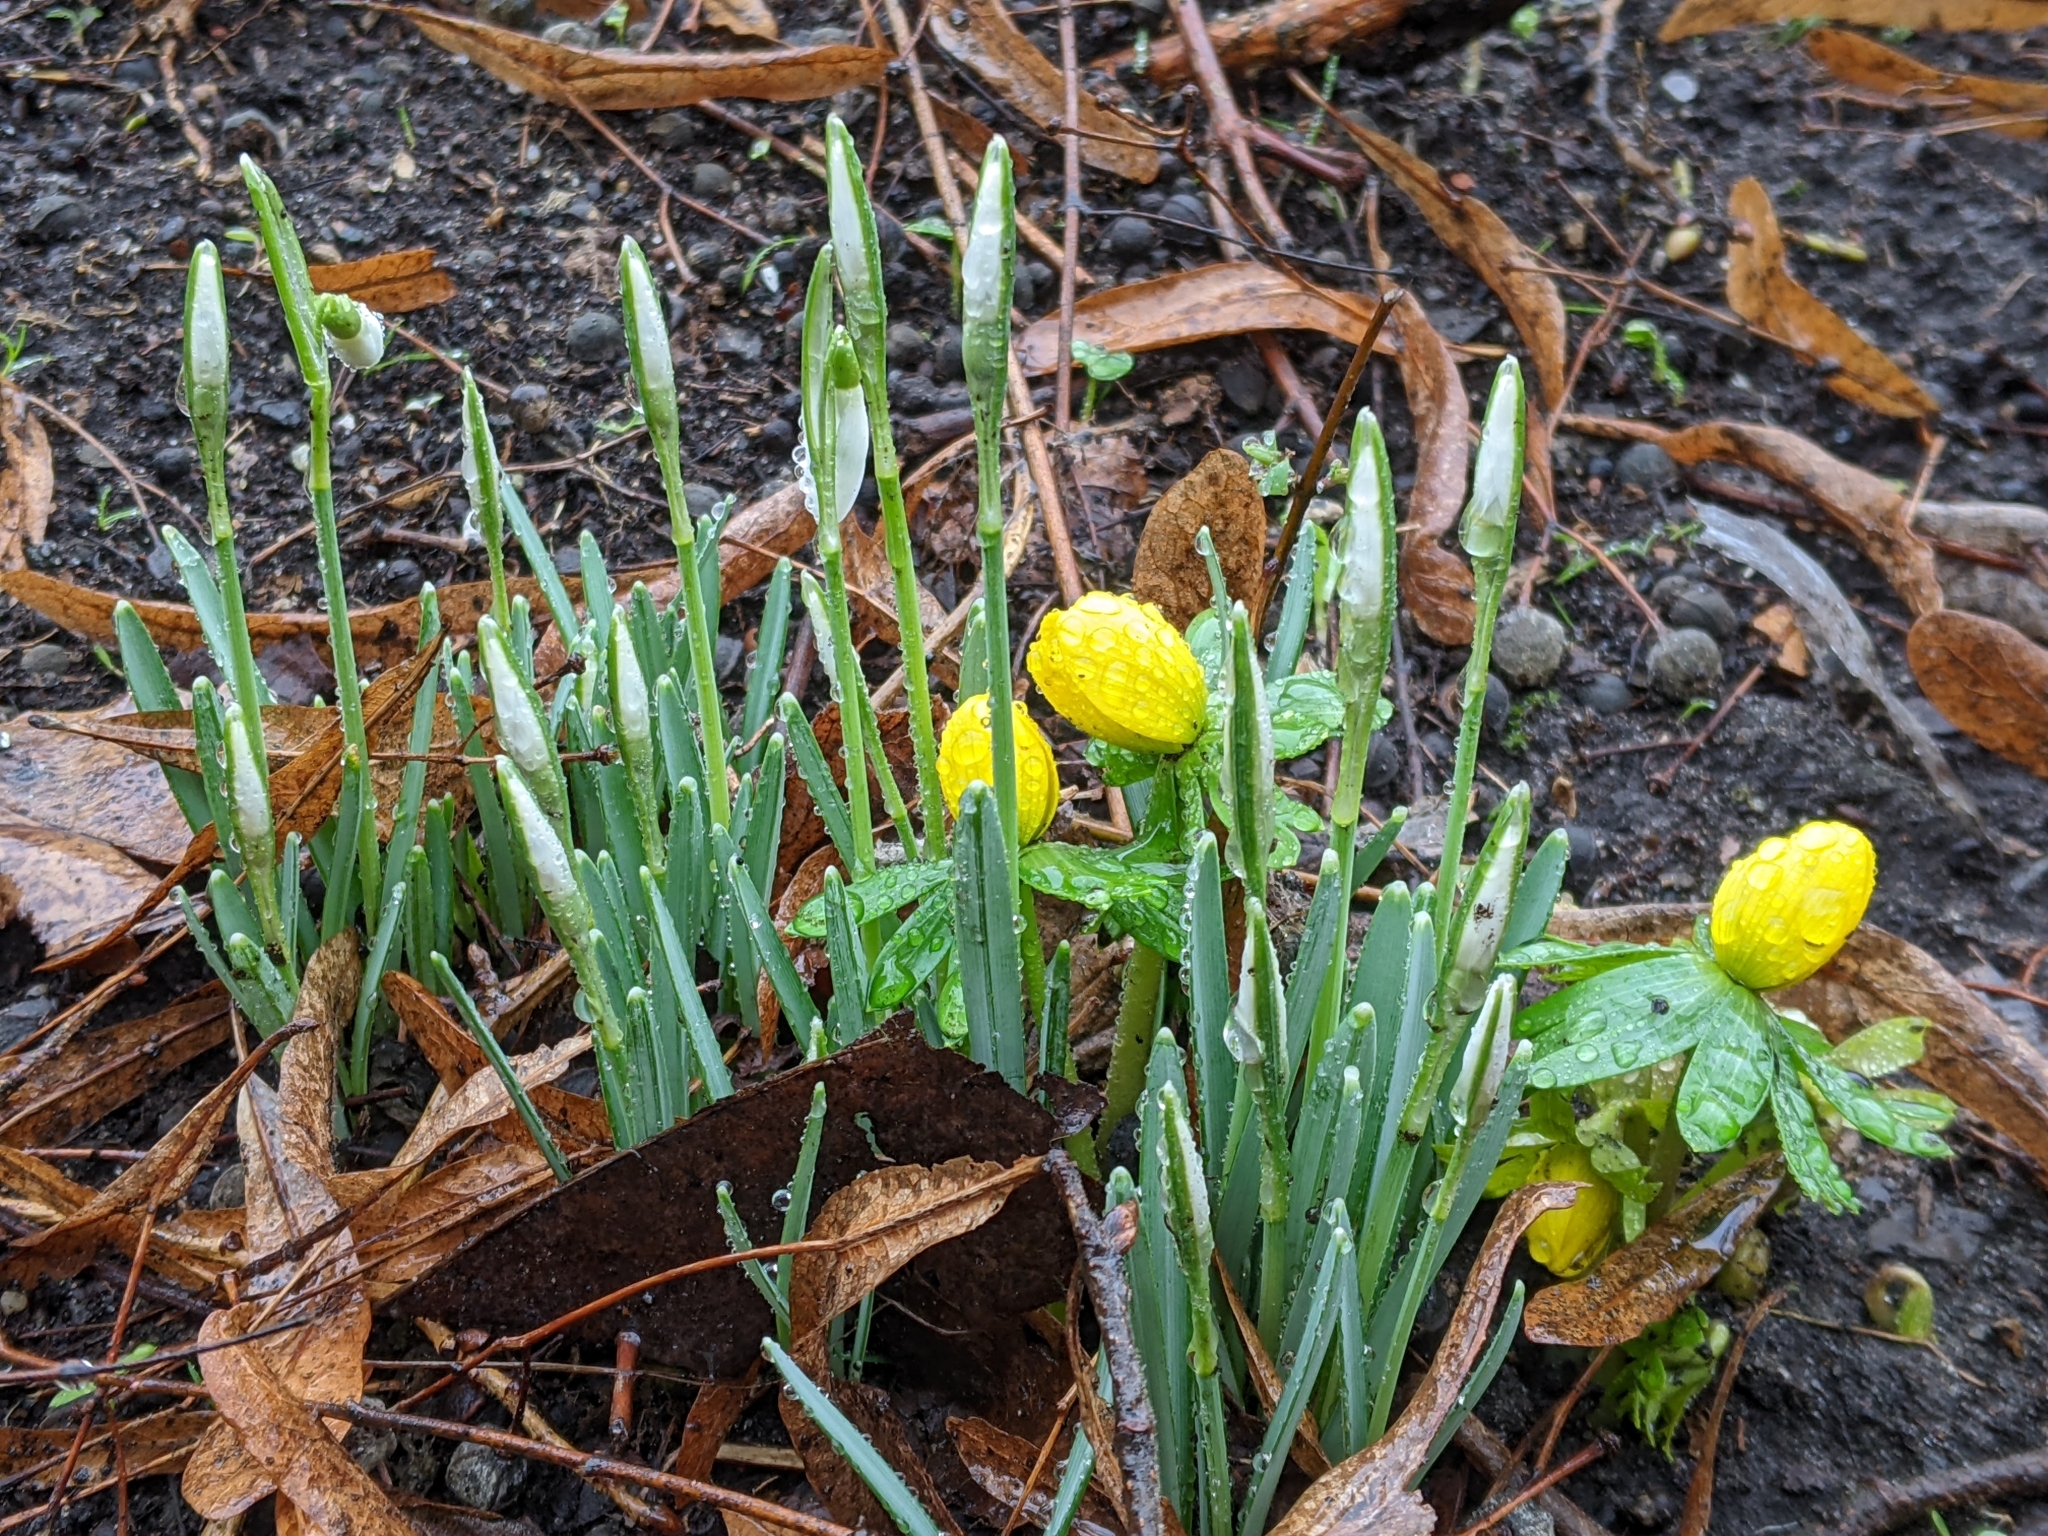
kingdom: Plantae
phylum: Tracheophyta
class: Magnoliopsida
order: Ranunculales
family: Ranunculaceae
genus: Eranthis
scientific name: Eranthis hyemalis
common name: Winter aconite
